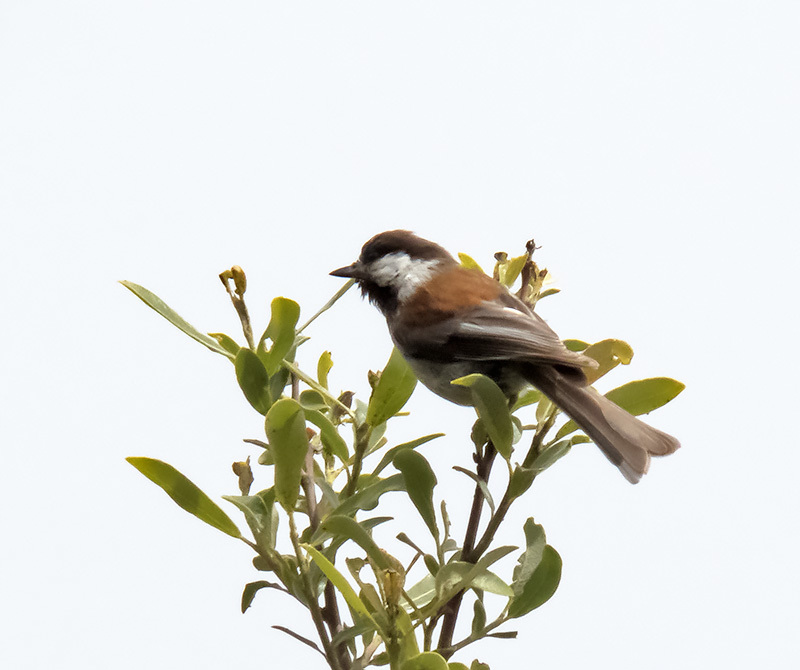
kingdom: Animalia
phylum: Chordata
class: Aves
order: Passeriformes
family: Paridae
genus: Poecile
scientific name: Poecile rufescens
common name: Chestnut-backed chickadee
